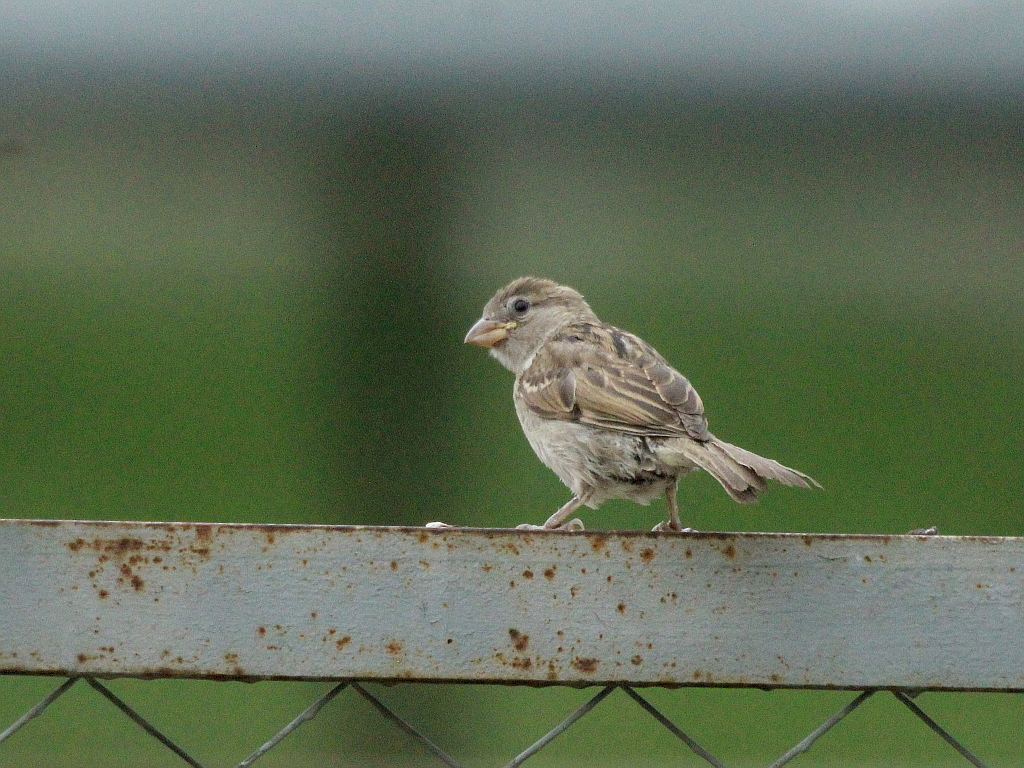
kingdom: Animalia
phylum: Chordata
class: Aves
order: Passeriformes
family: Passeridae
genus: Passer
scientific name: Passer domesticus
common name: House sparrow
